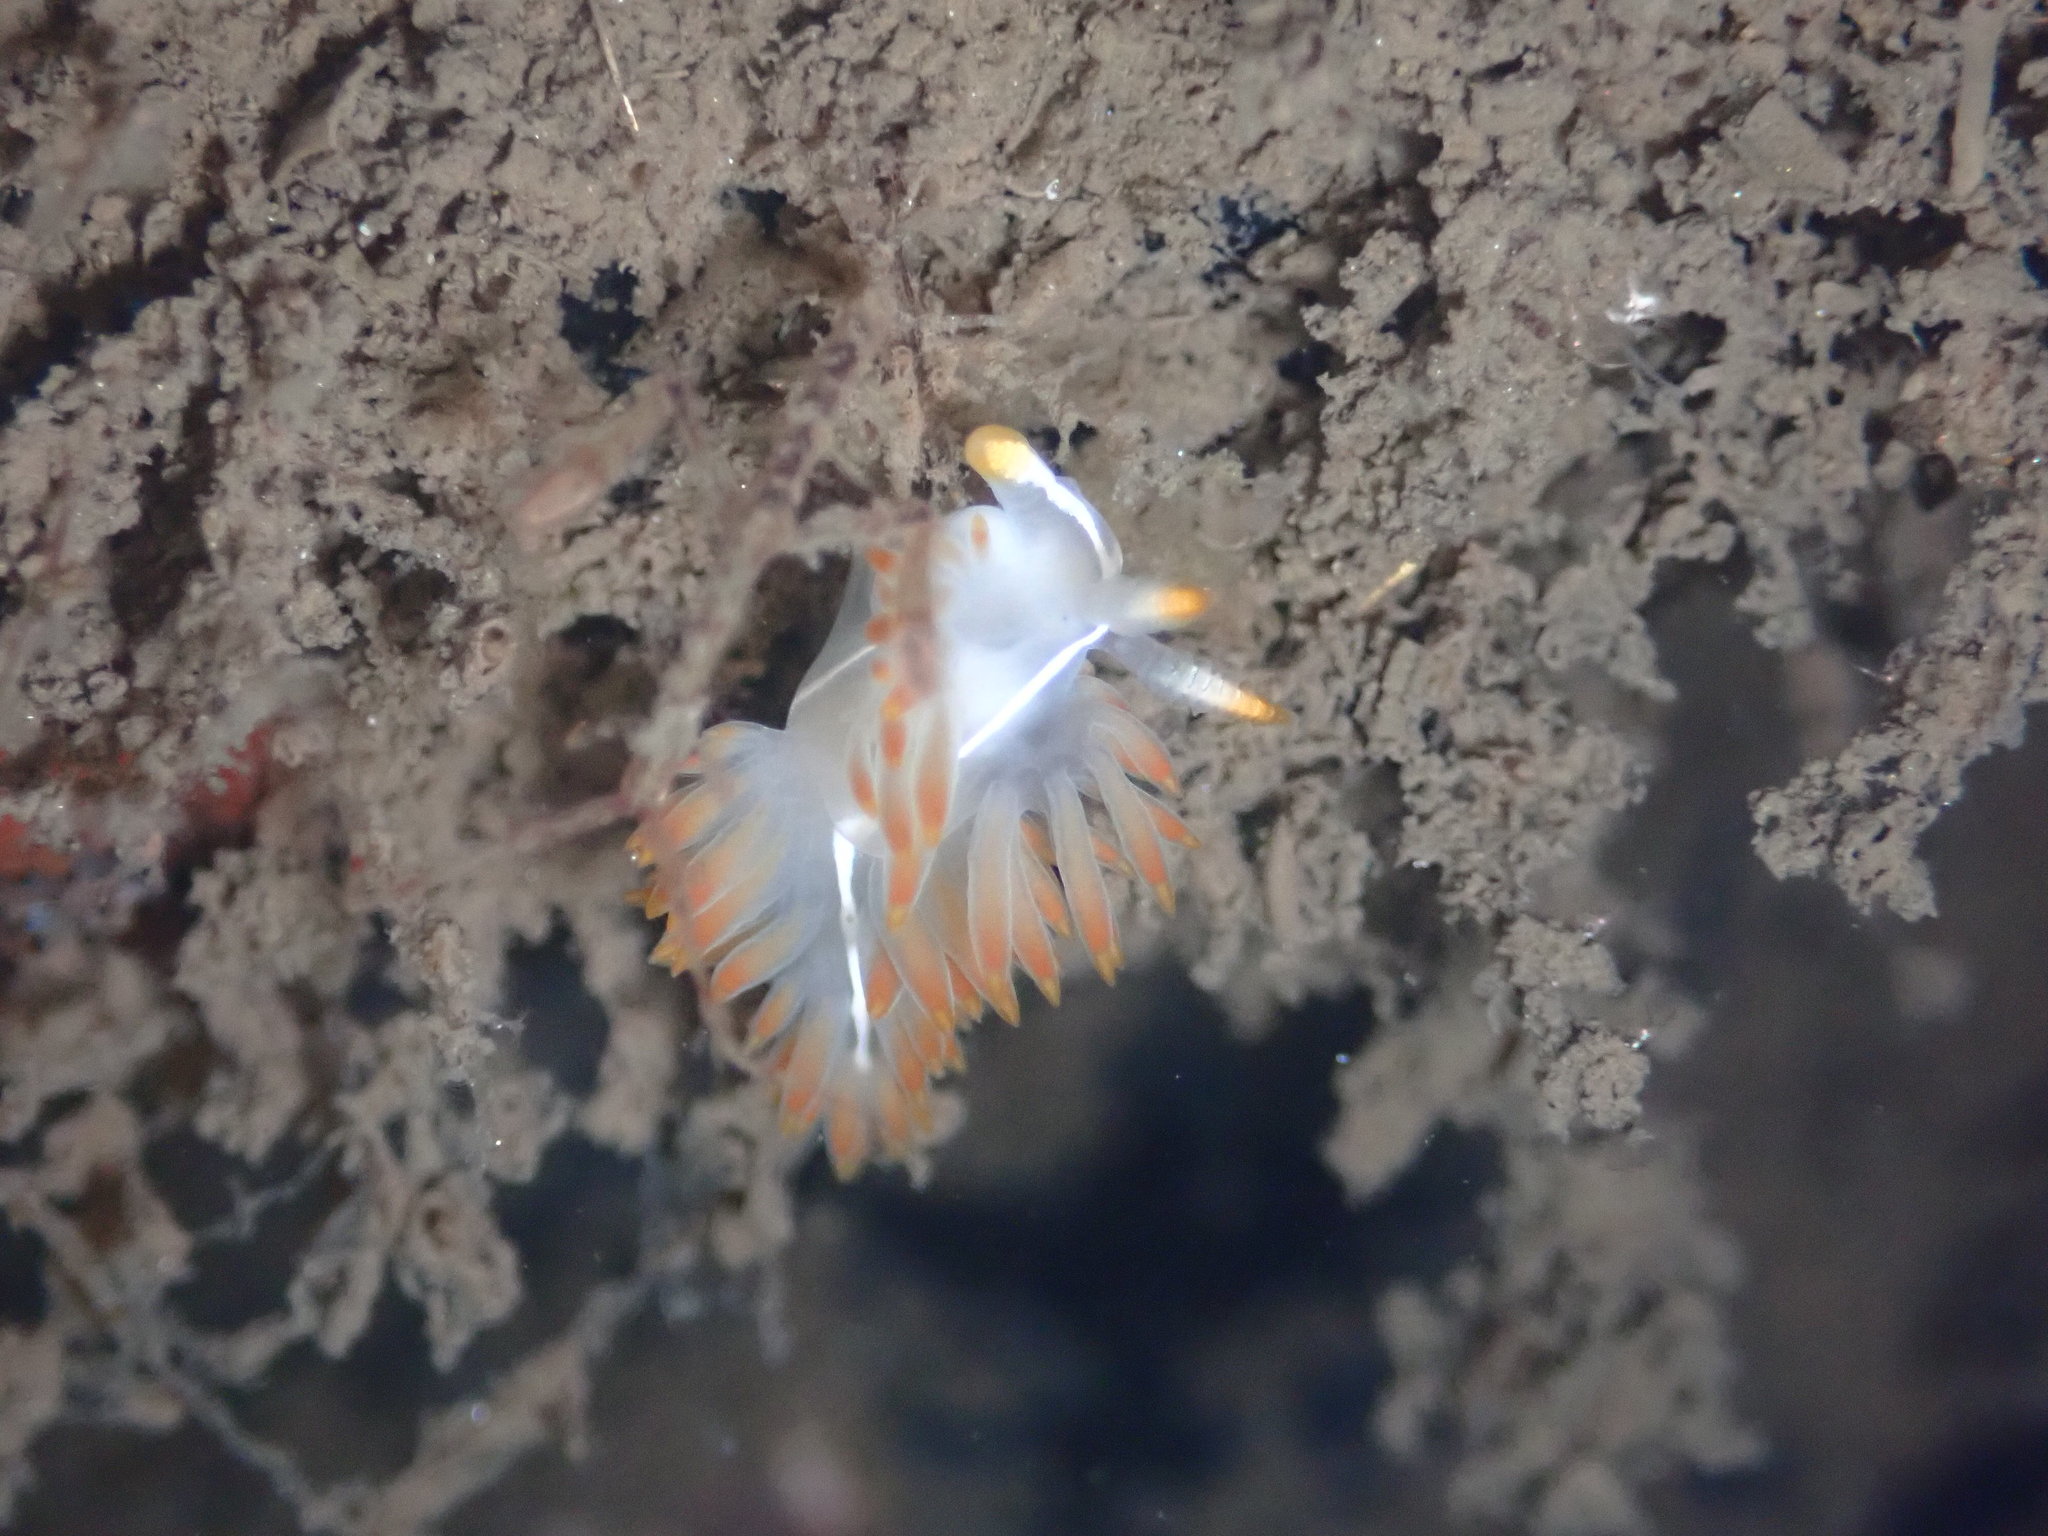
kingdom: Animalia
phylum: Mollusca
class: Gastropoda
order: Nudibranchia
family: Coryphellidae
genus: Coryphella
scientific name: Coryphella trilineata
